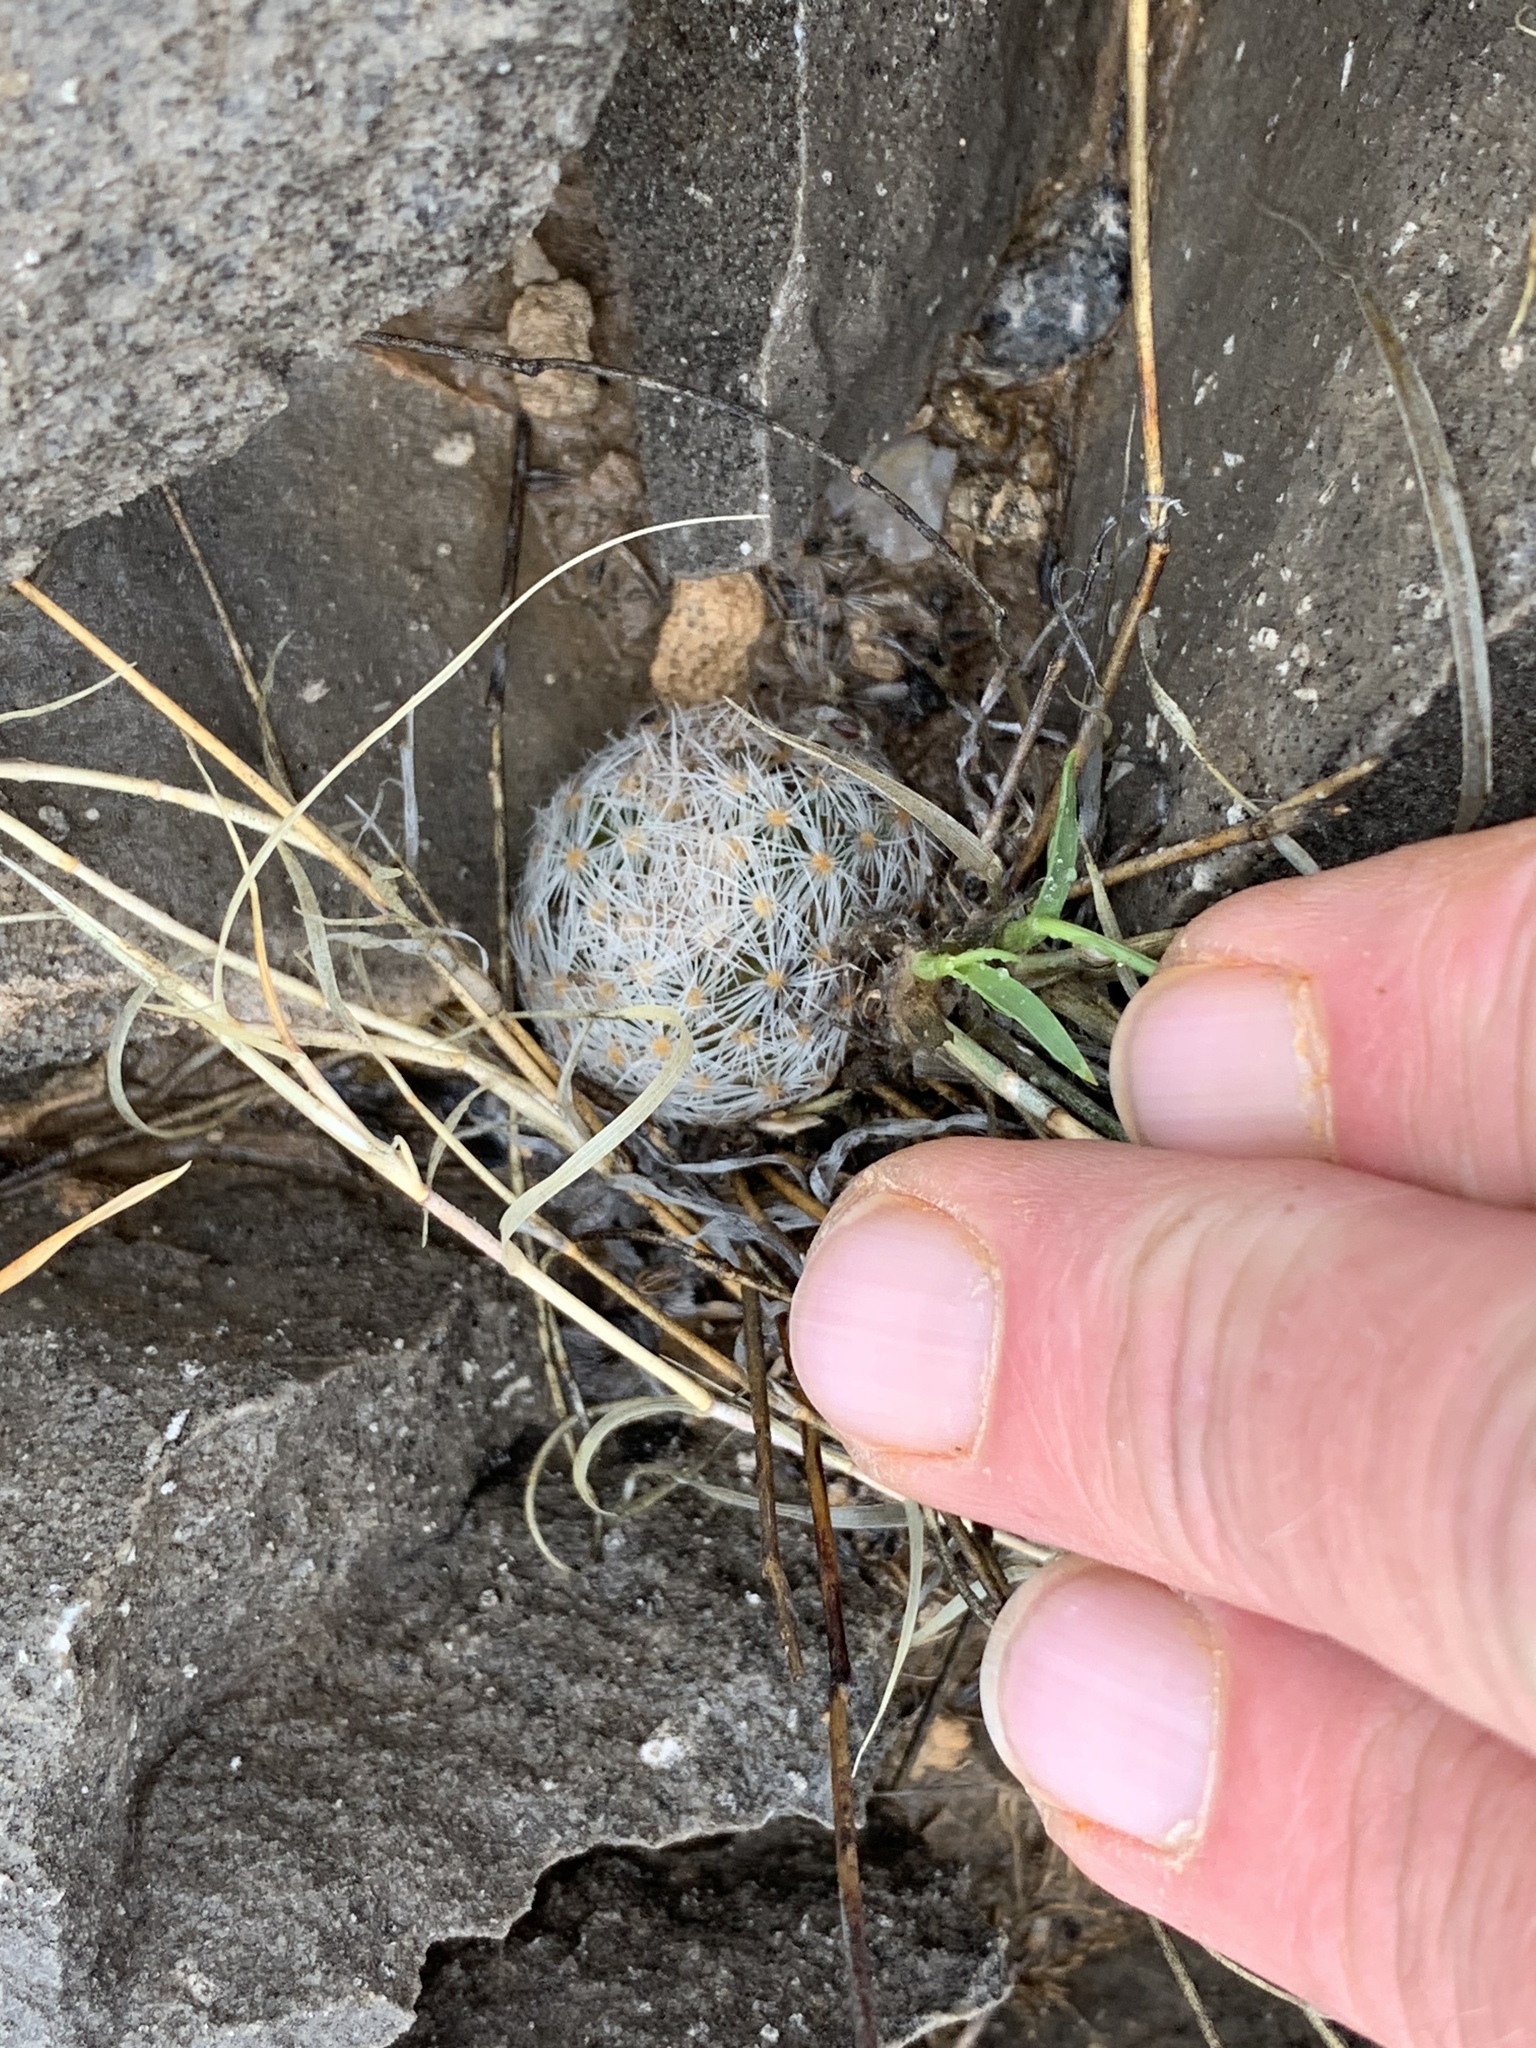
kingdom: Plantae
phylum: Tracheophyta
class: Magnoliopsida
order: Caryophyllales
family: Cactaceae
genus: Mammillaria
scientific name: Mammillaria lasiacantha
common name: Lace-spine nipple cactus
